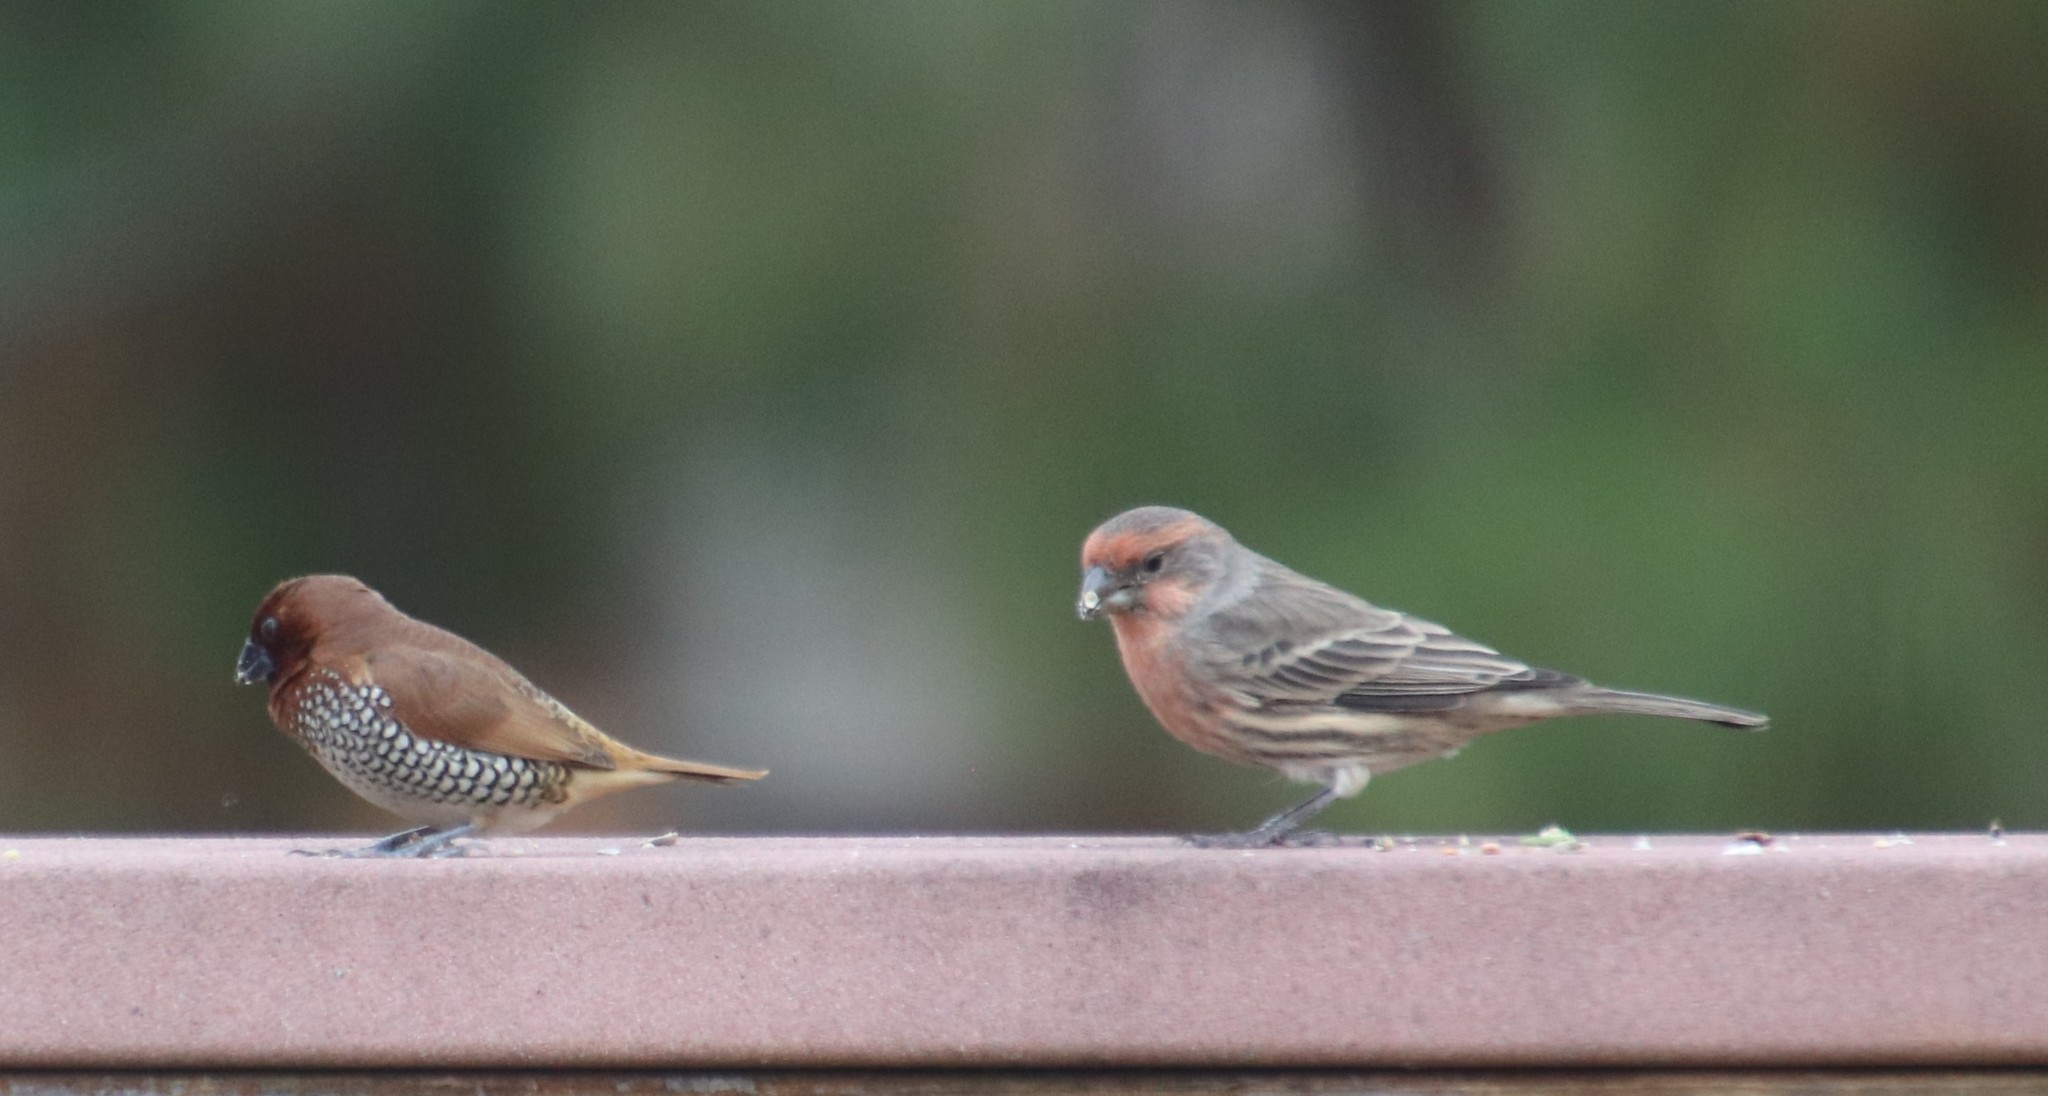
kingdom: Animalia
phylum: Chordata
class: Aves
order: Passeriformes
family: Fringillidae
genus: Haemorhous
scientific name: Haemorhous mexicanus
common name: House finch
